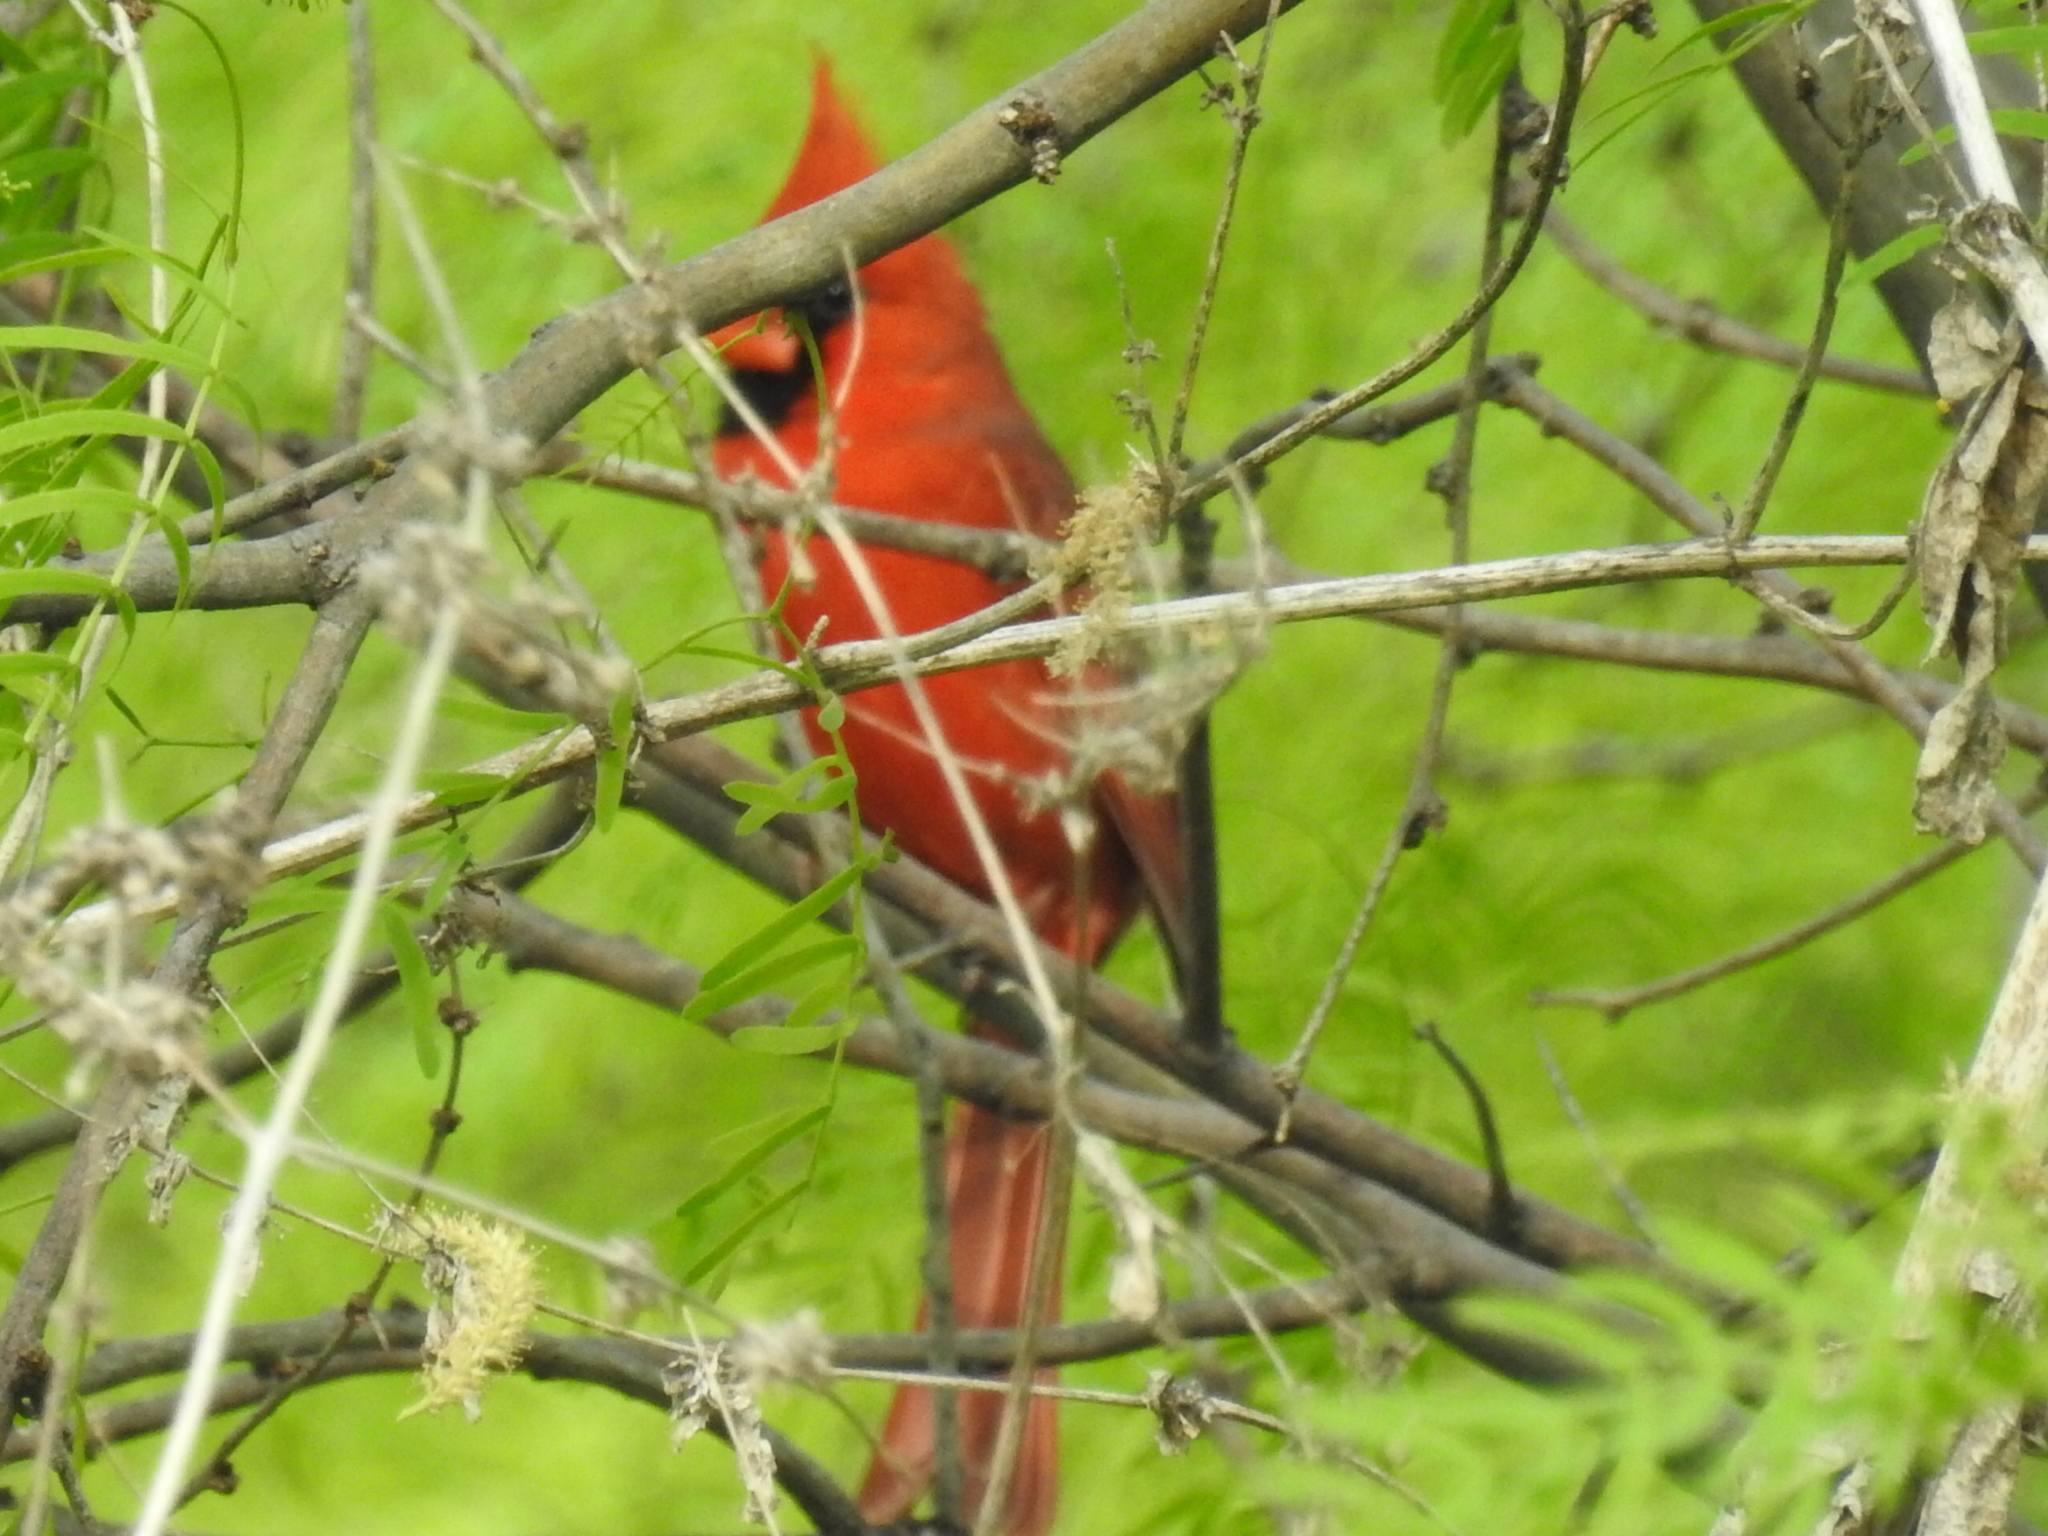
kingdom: Animalia
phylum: Chordata
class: Aves
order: Passeriformes
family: Cardinalidae
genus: Cardinalis
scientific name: Cardinalis cardinalis
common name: Northern cardinal
